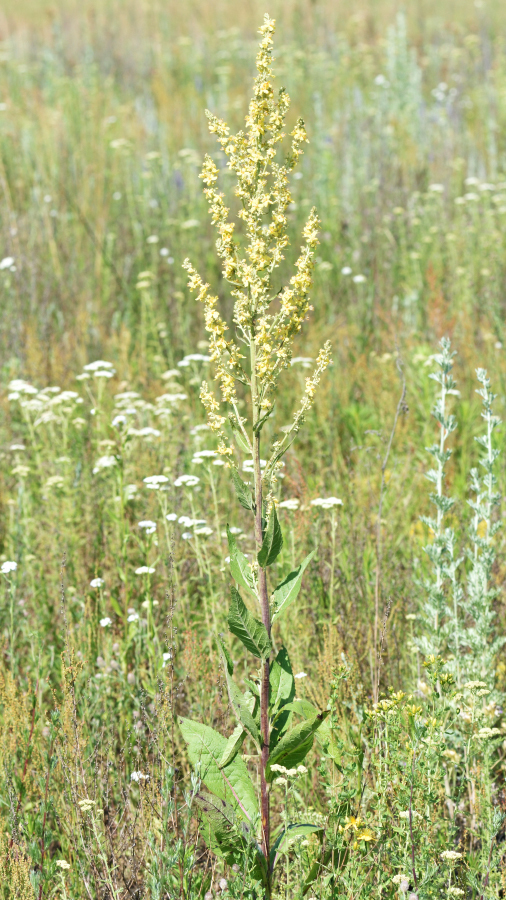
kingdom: Plantae
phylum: Tracheophyta
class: Magnoliopsida
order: Lamiales
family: Scrophulariaceae
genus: Verbascum
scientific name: Verbascum lychnitis
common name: White mullein
